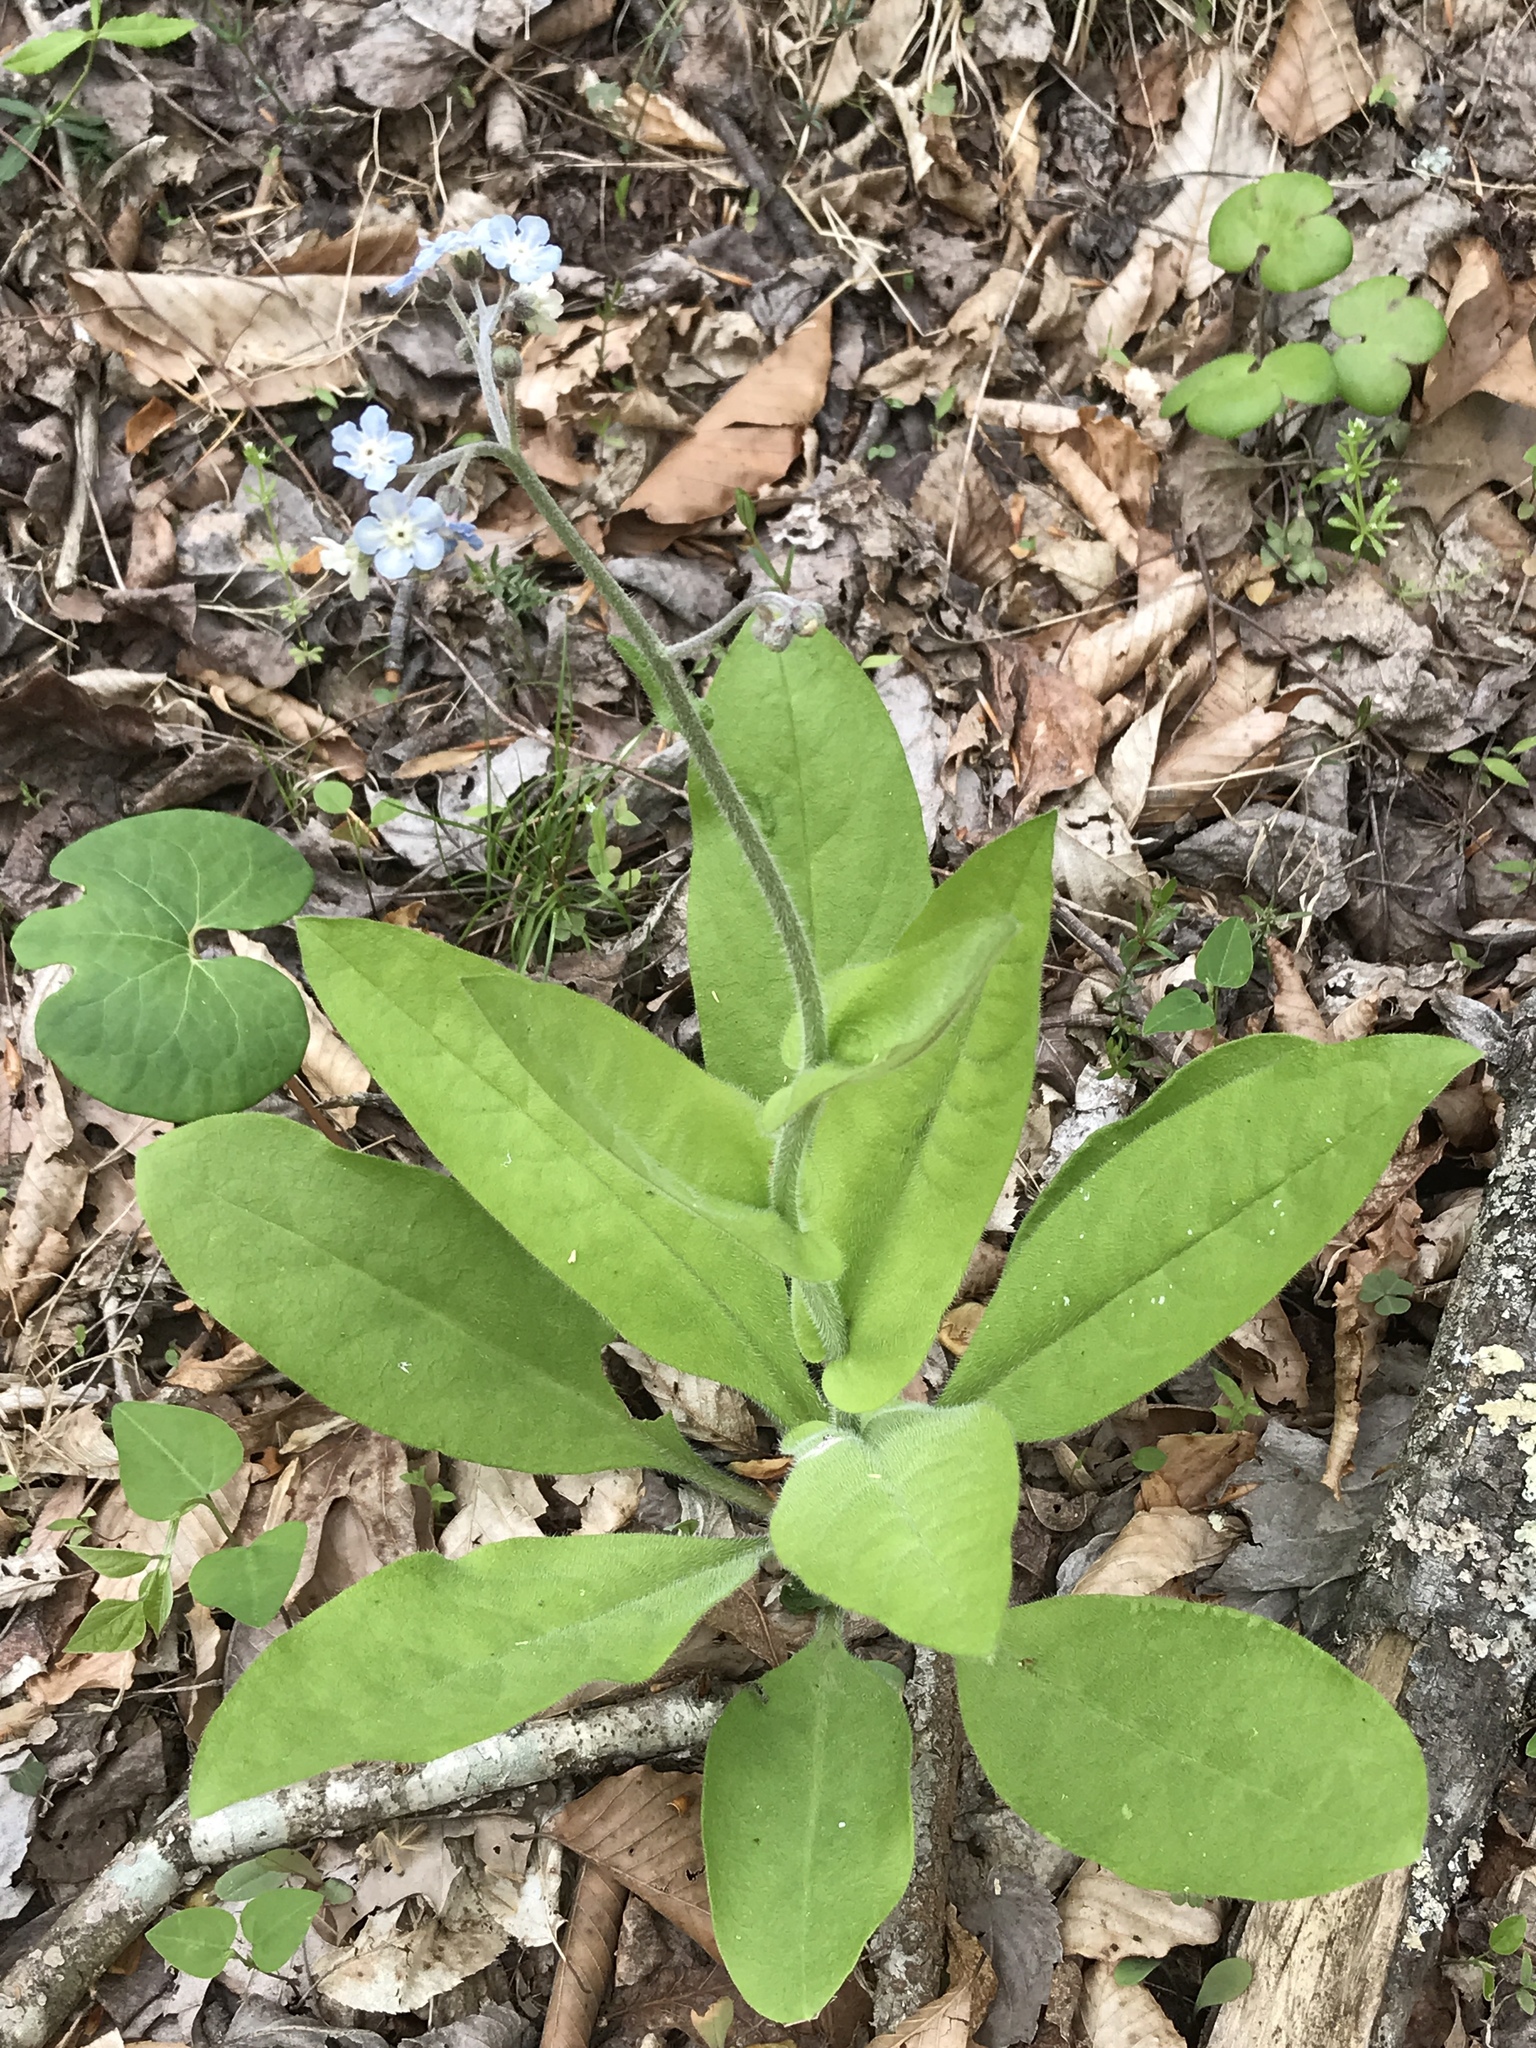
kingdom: Plantae
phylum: Tracheophyta
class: Magnoliopsida
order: Boraginales
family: Boraginaceae
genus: Andersonglossum
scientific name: Andersonglossum virginianum
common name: Wild comfrey
